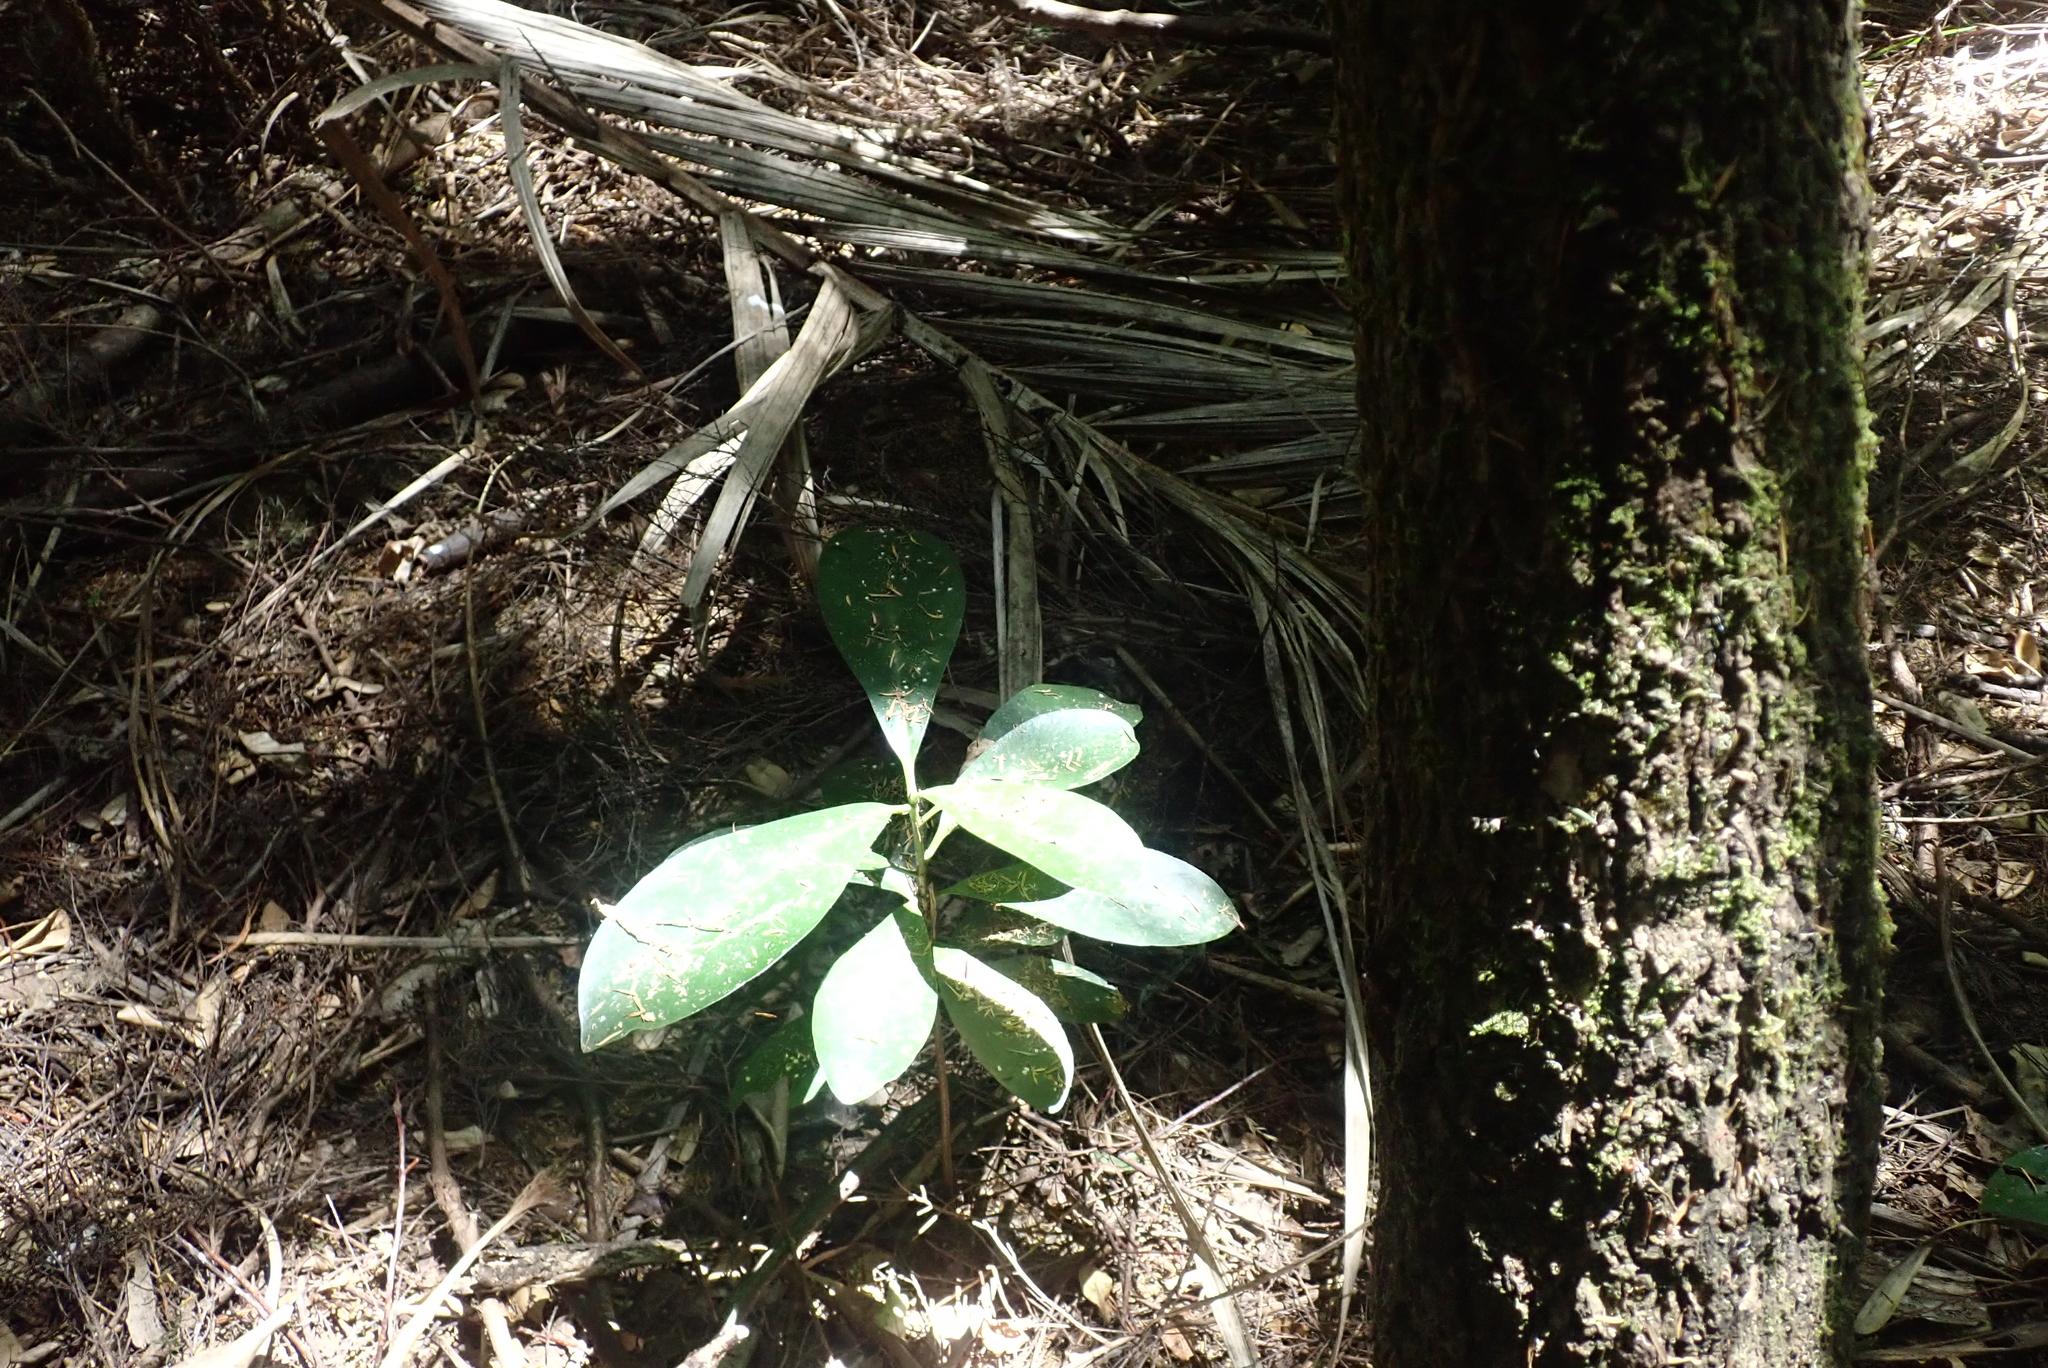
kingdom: Plantae
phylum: Tracheophyta
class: Magnoliopsida
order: Cucurbitales
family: Corynocarpaceae
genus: Corynocarpus
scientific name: Corynocarpus laevigatus
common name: New zealand laurel
